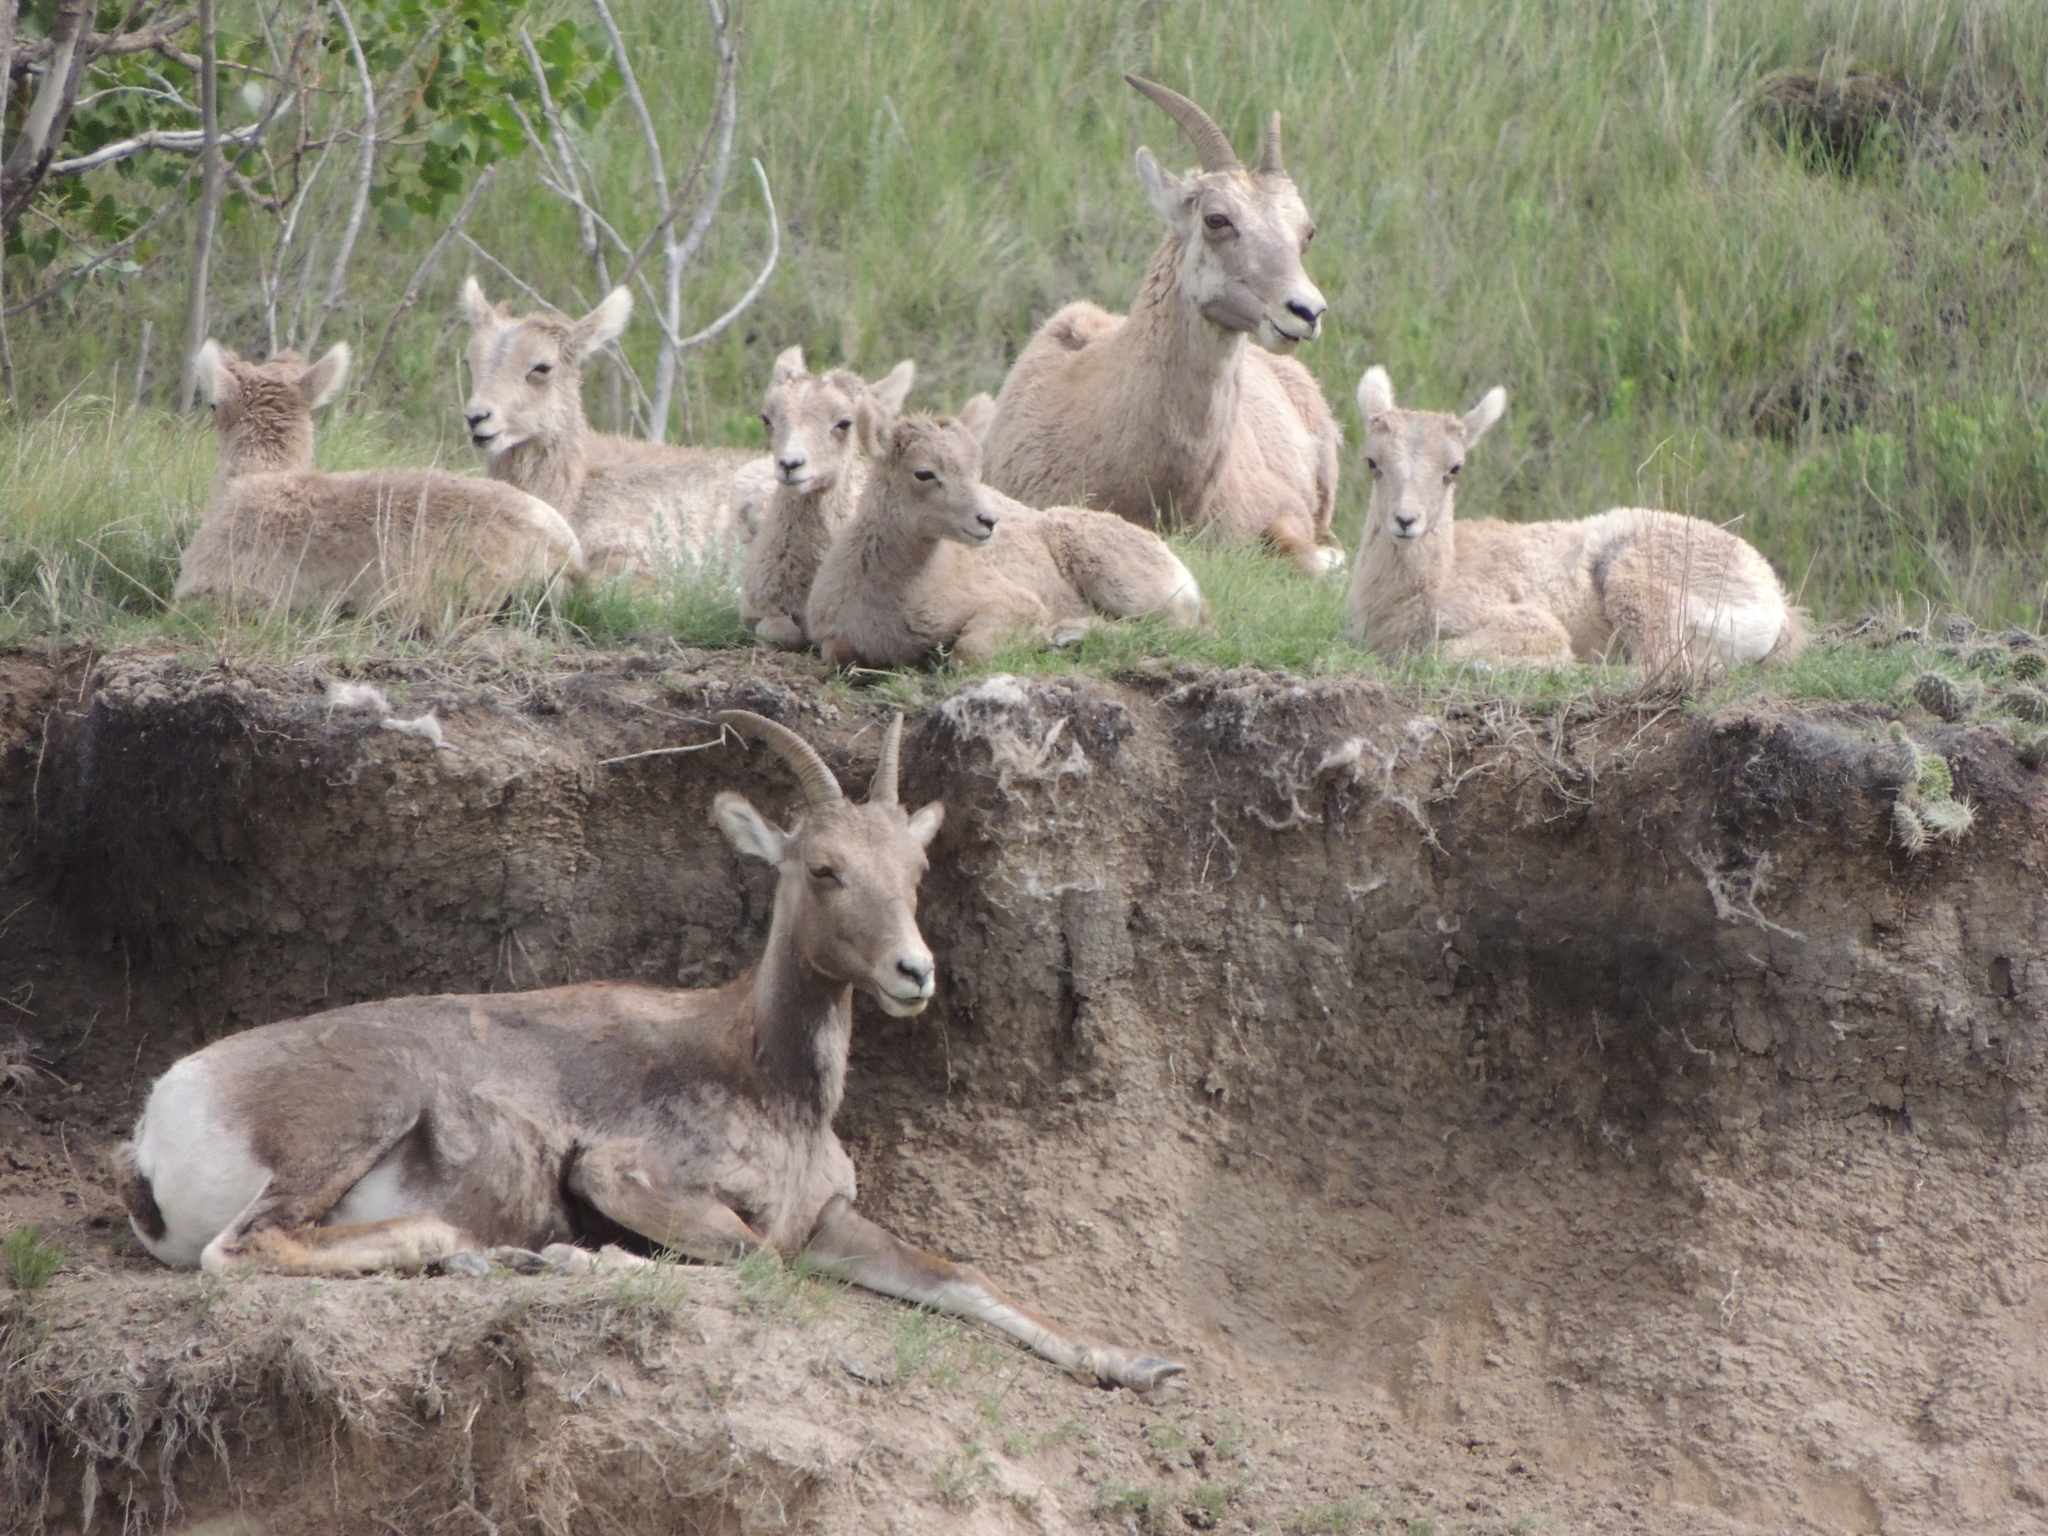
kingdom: Animalia
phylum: Chordata
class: Mammalia
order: Artiodactyla
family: Bovidae
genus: Ovis
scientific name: Ovis canadensis
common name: Bighorn sheep
